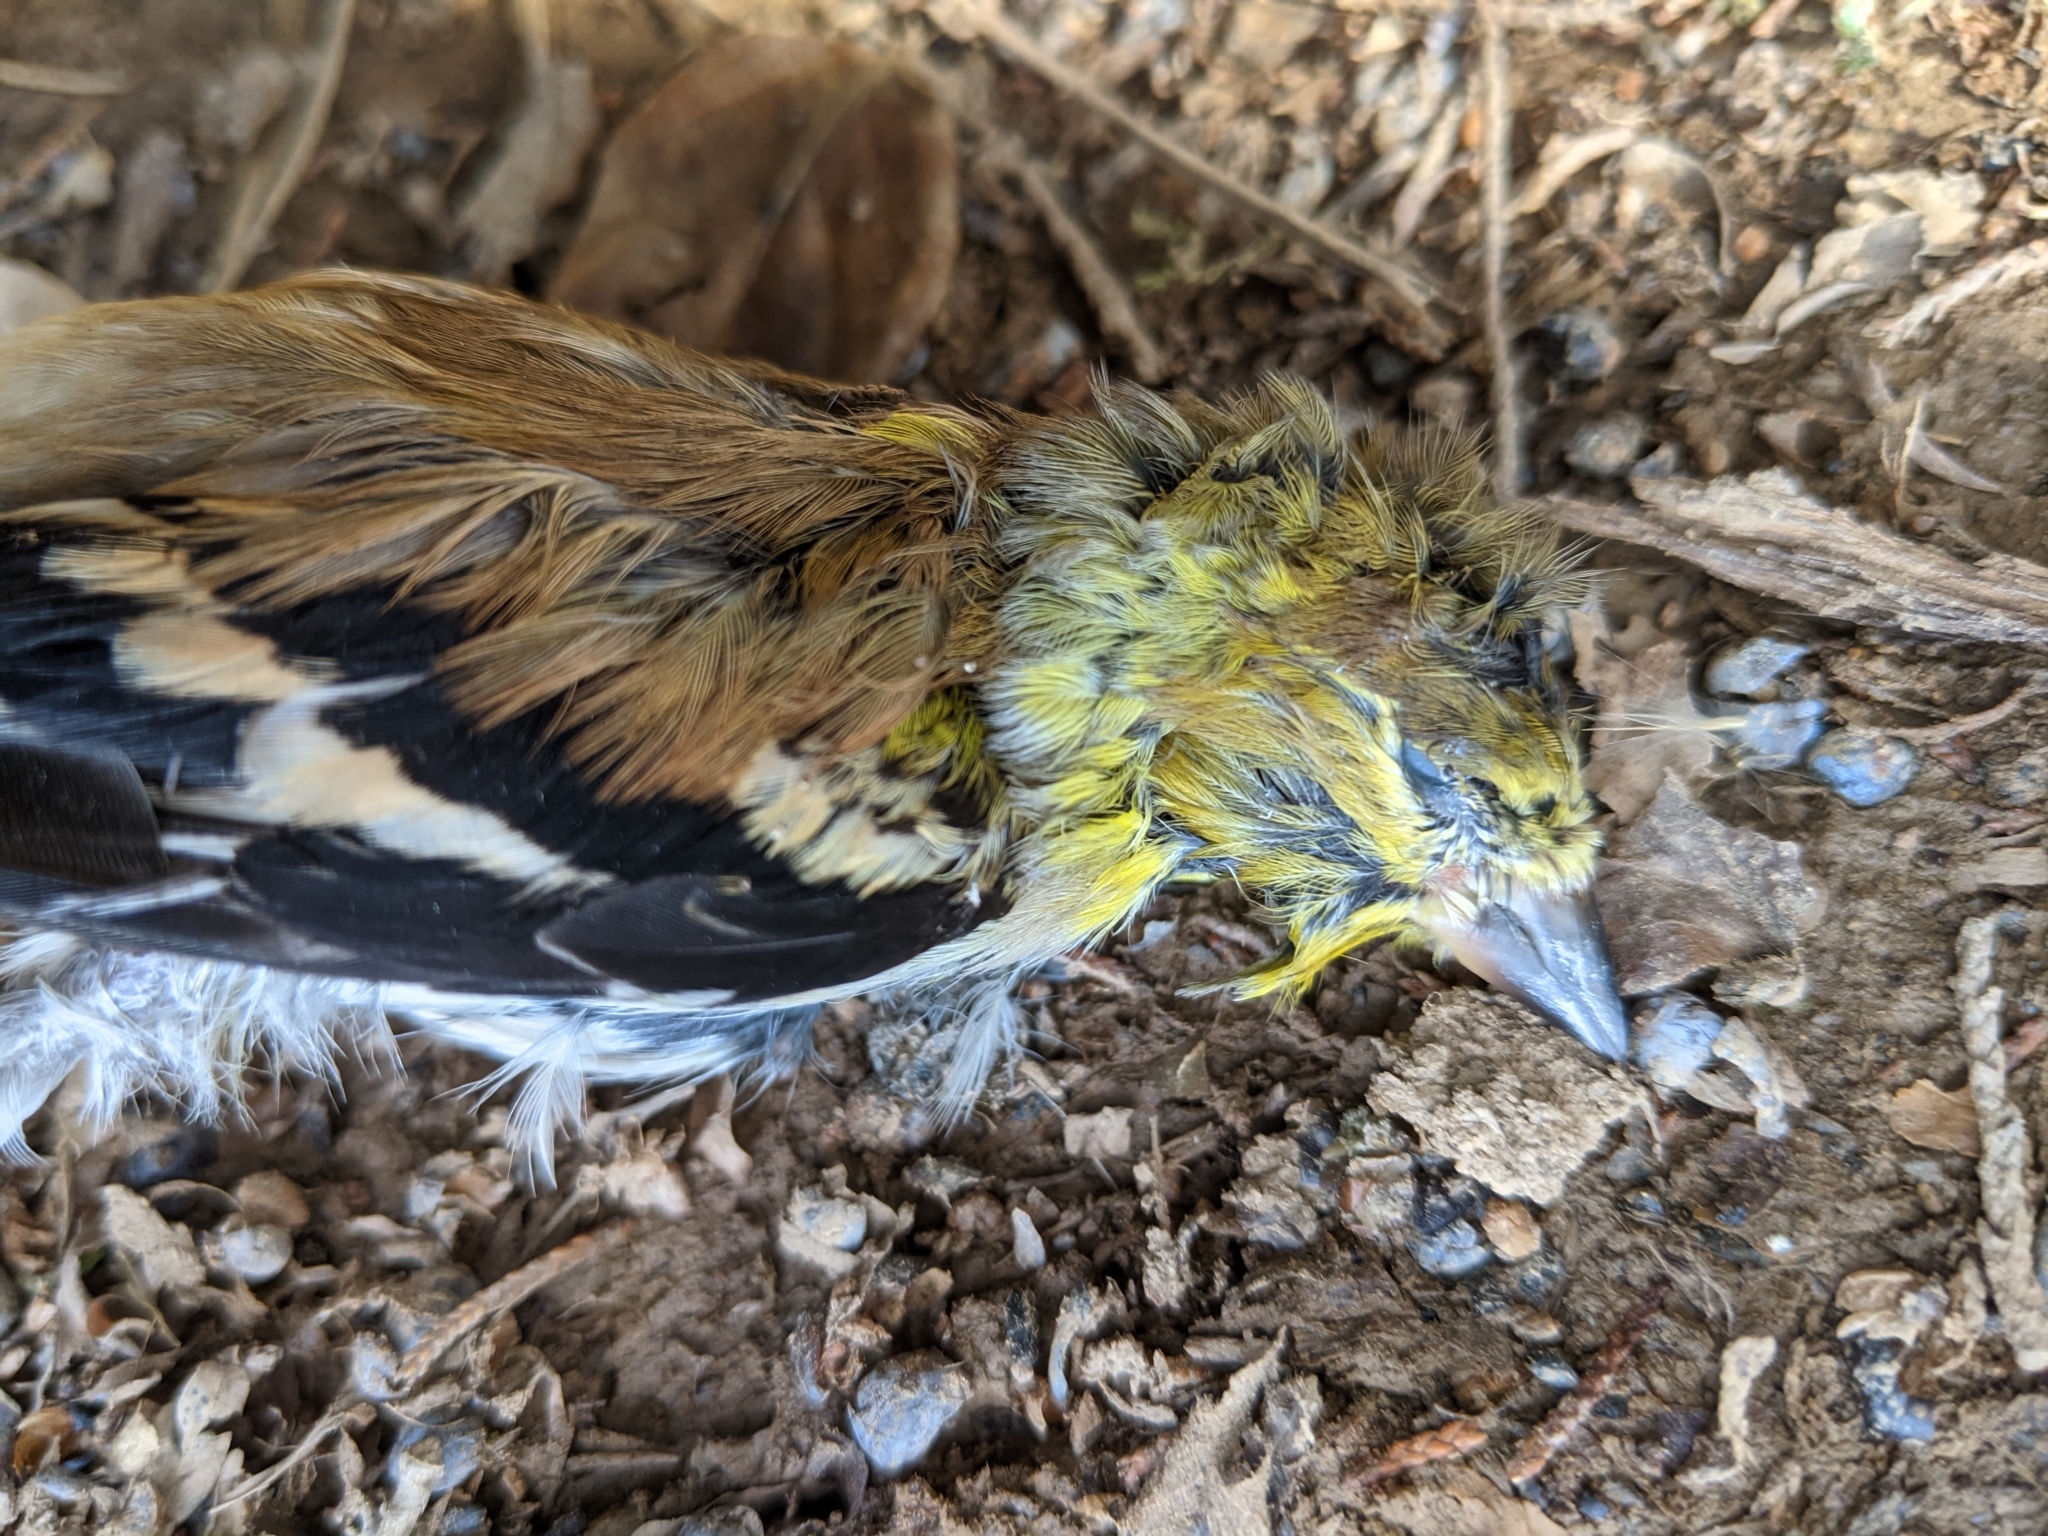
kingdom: Animalia
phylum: Chordata
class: Aves
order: Passeriformes
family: Fringillidae
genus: Spinus
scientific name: Spinus tristis
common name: American goldfinch
